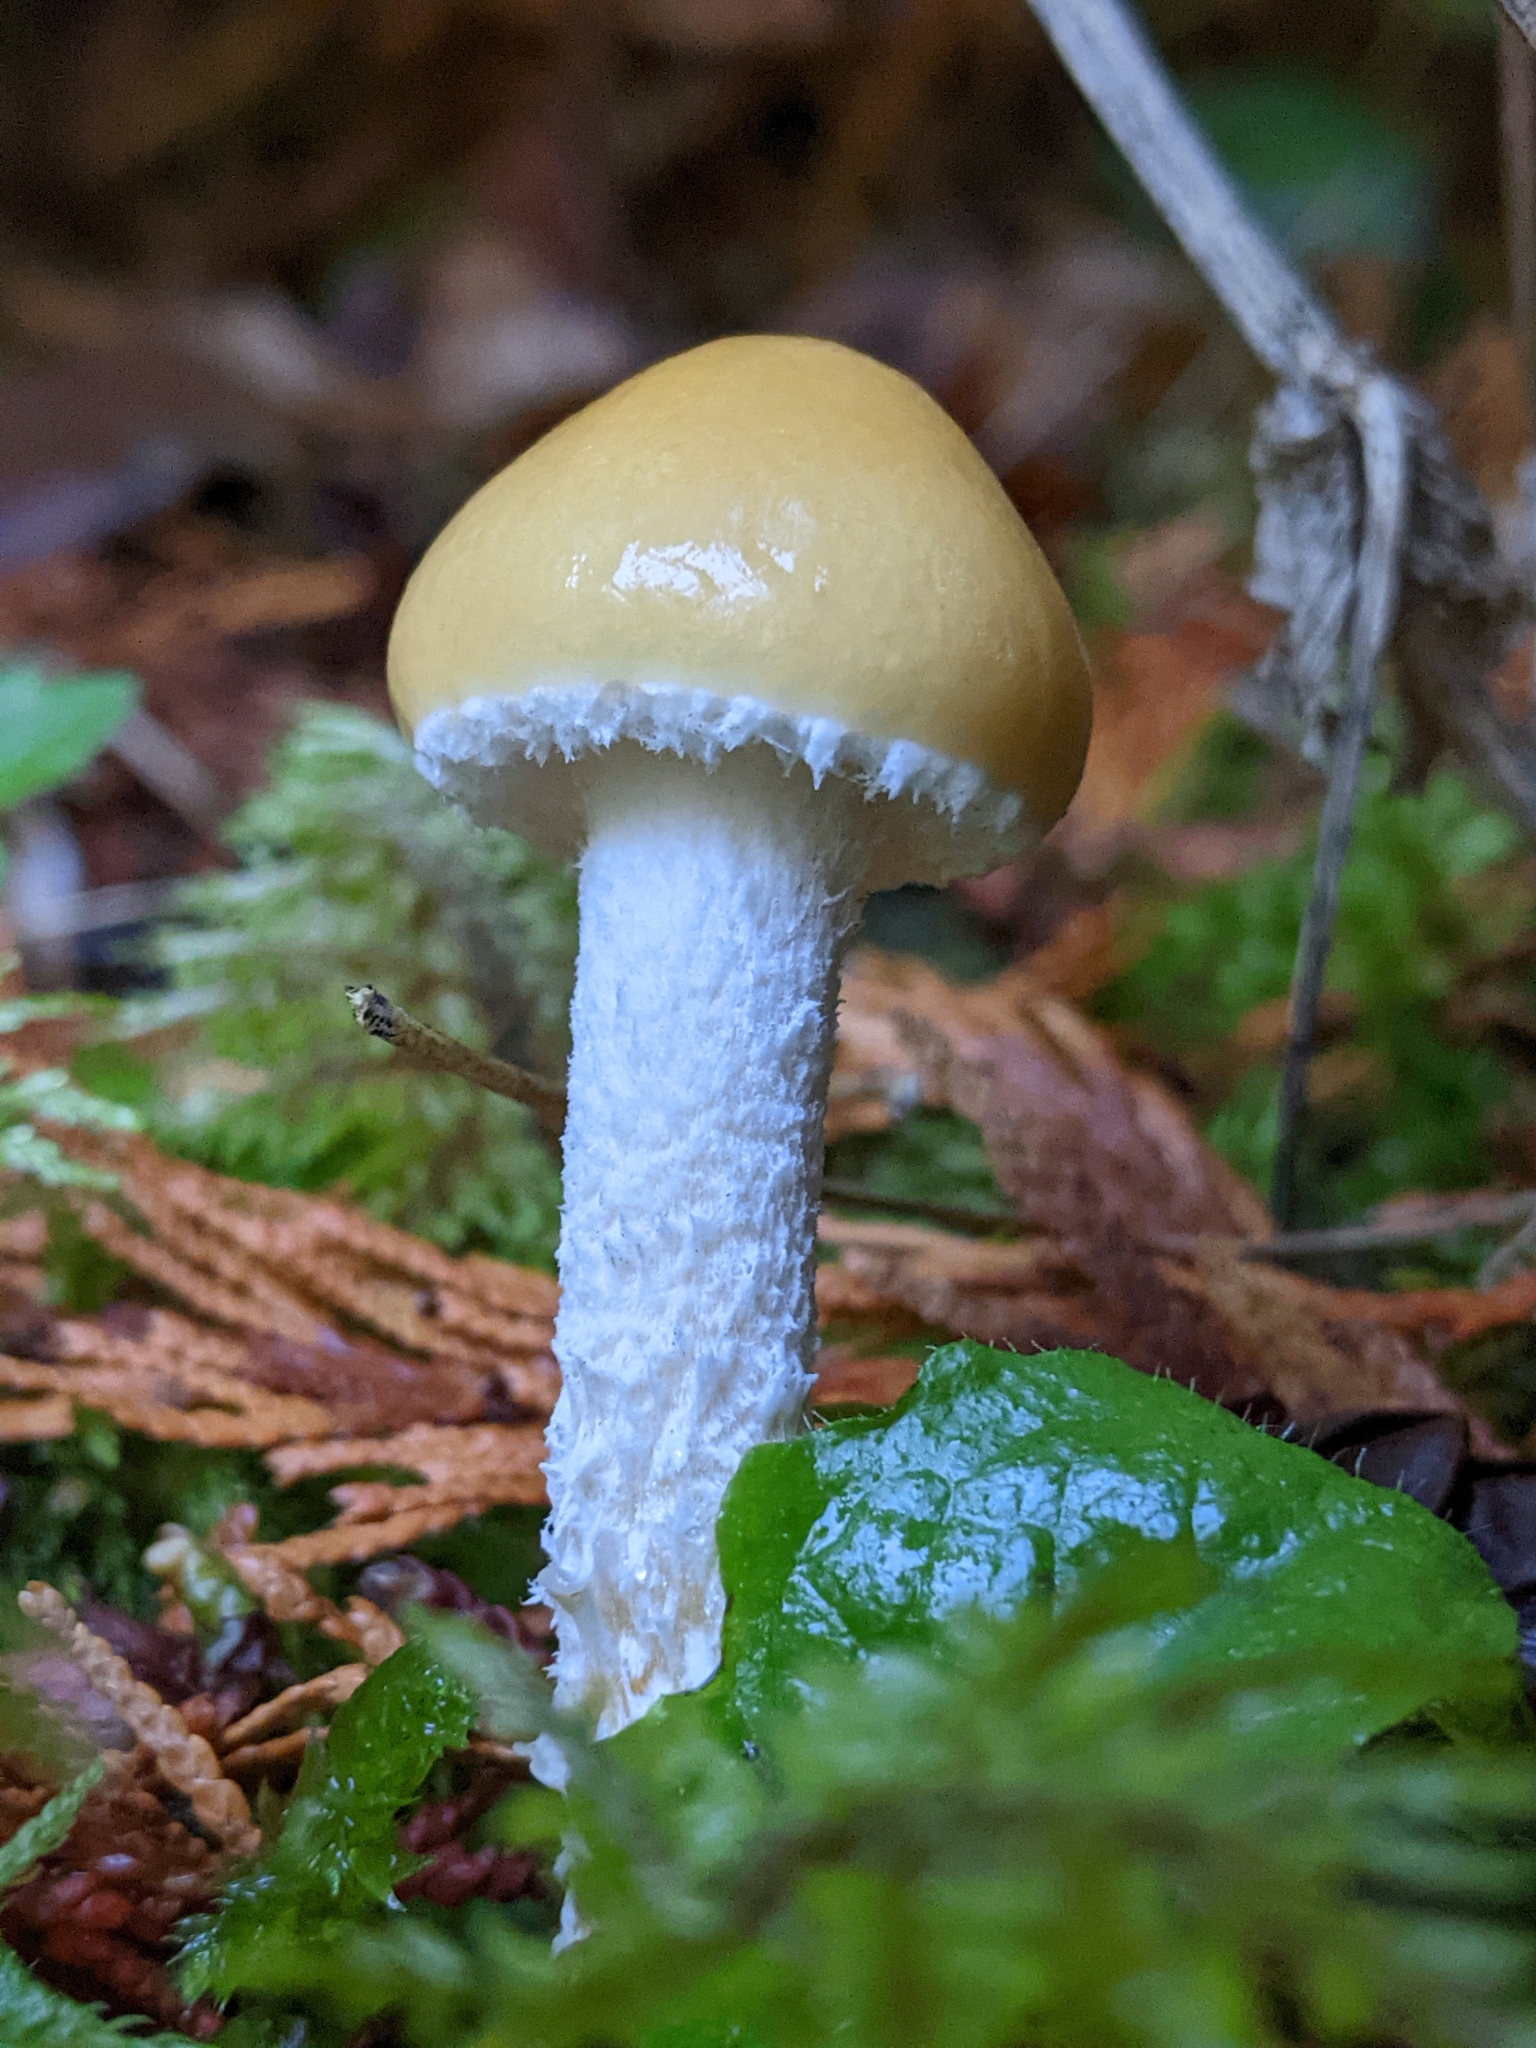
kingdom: Fungi
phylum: Basidiomycota
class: Agaricomycetes
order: Agaricales
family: Strophariaceae
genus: Stropharia
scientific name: Stropharia ambigua
